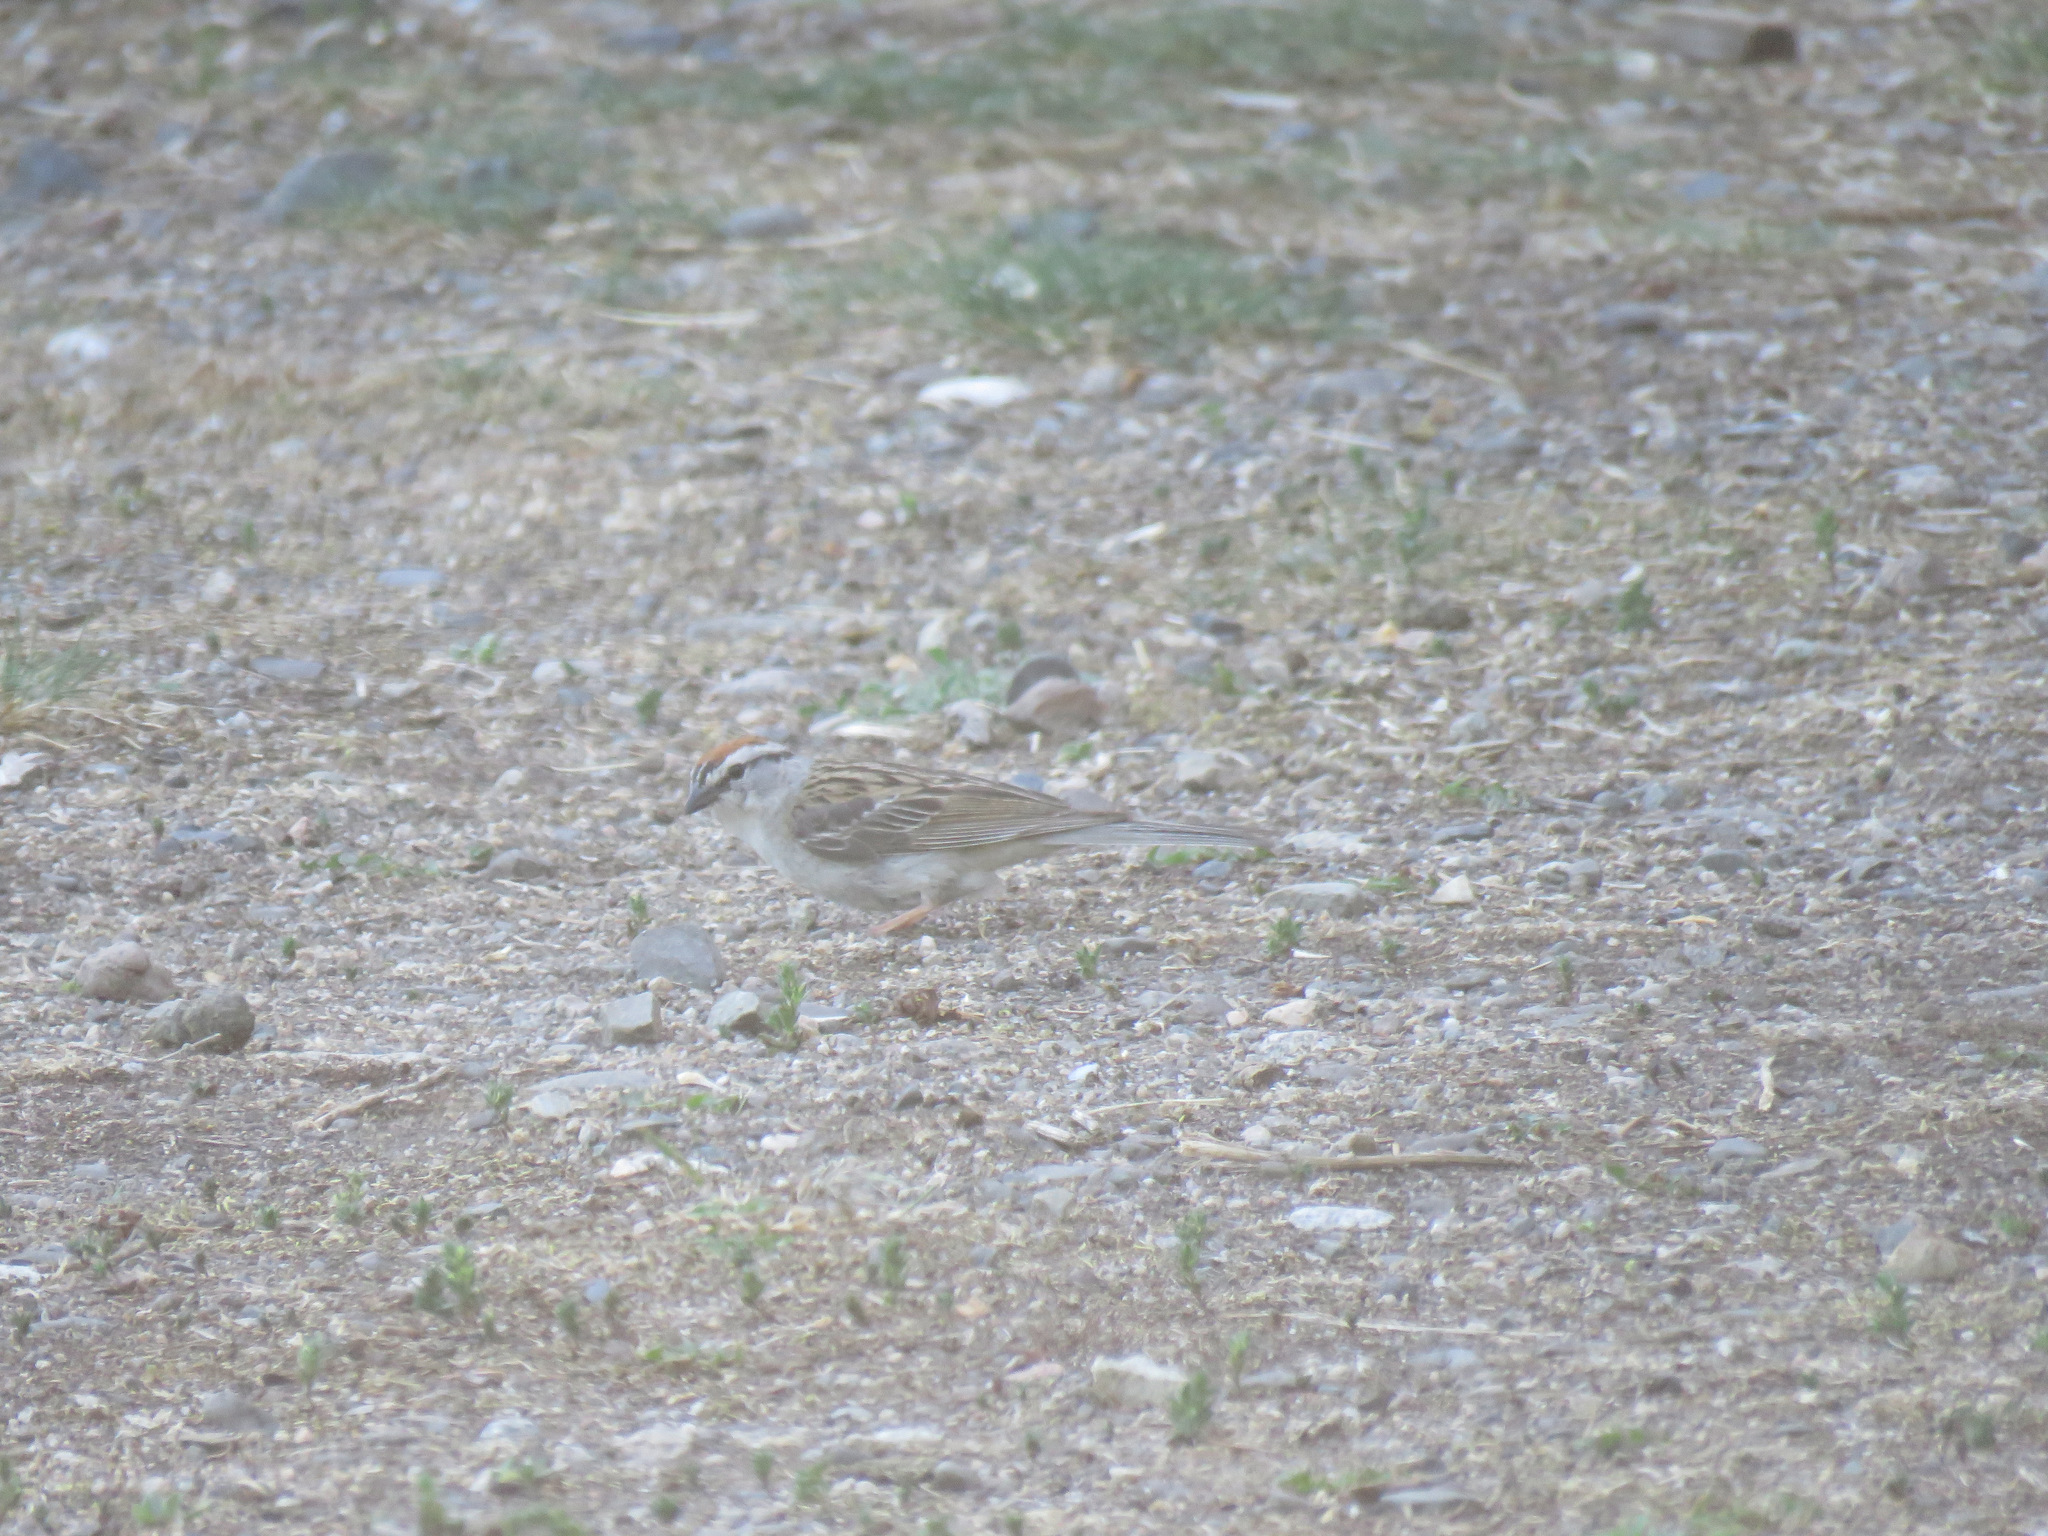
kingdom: Animalia
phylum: Chordata
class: Aves
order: Passeriformes
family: Passerellidae
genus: Spizella
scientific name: Spizella passerina
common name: Chipping sparrow
